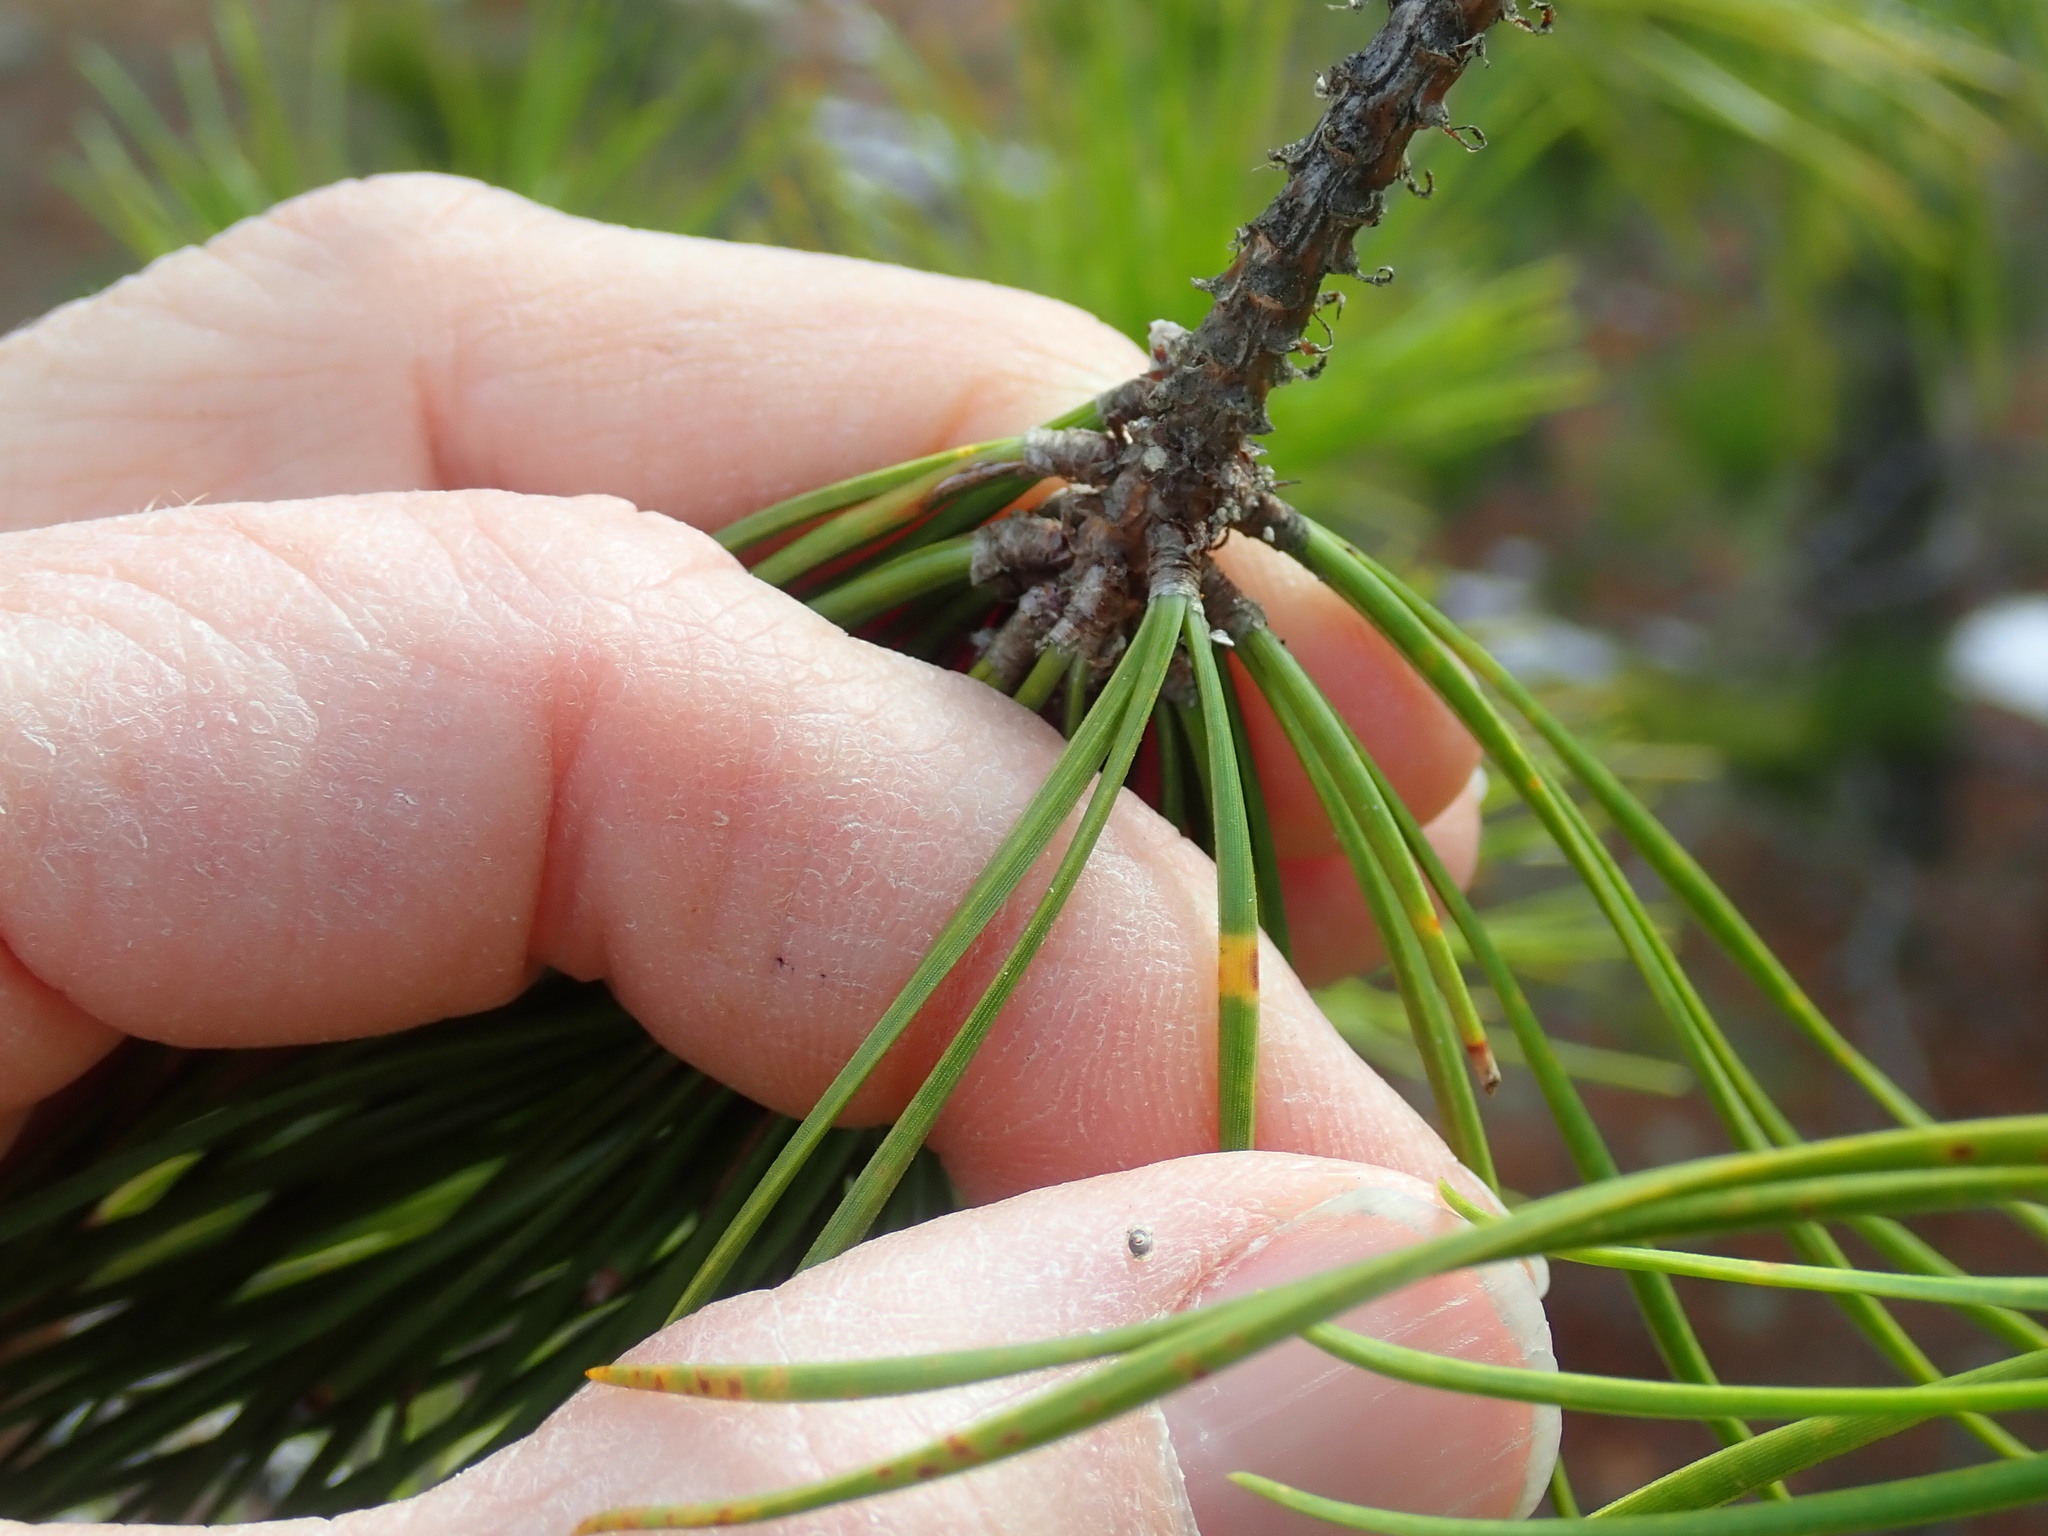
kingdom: Plantae
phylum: Tracheophyta
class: Pinopsida
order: Pinales
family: Pinaceae
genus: Pinus
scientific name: Pinus rigida
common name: Pitch pine
